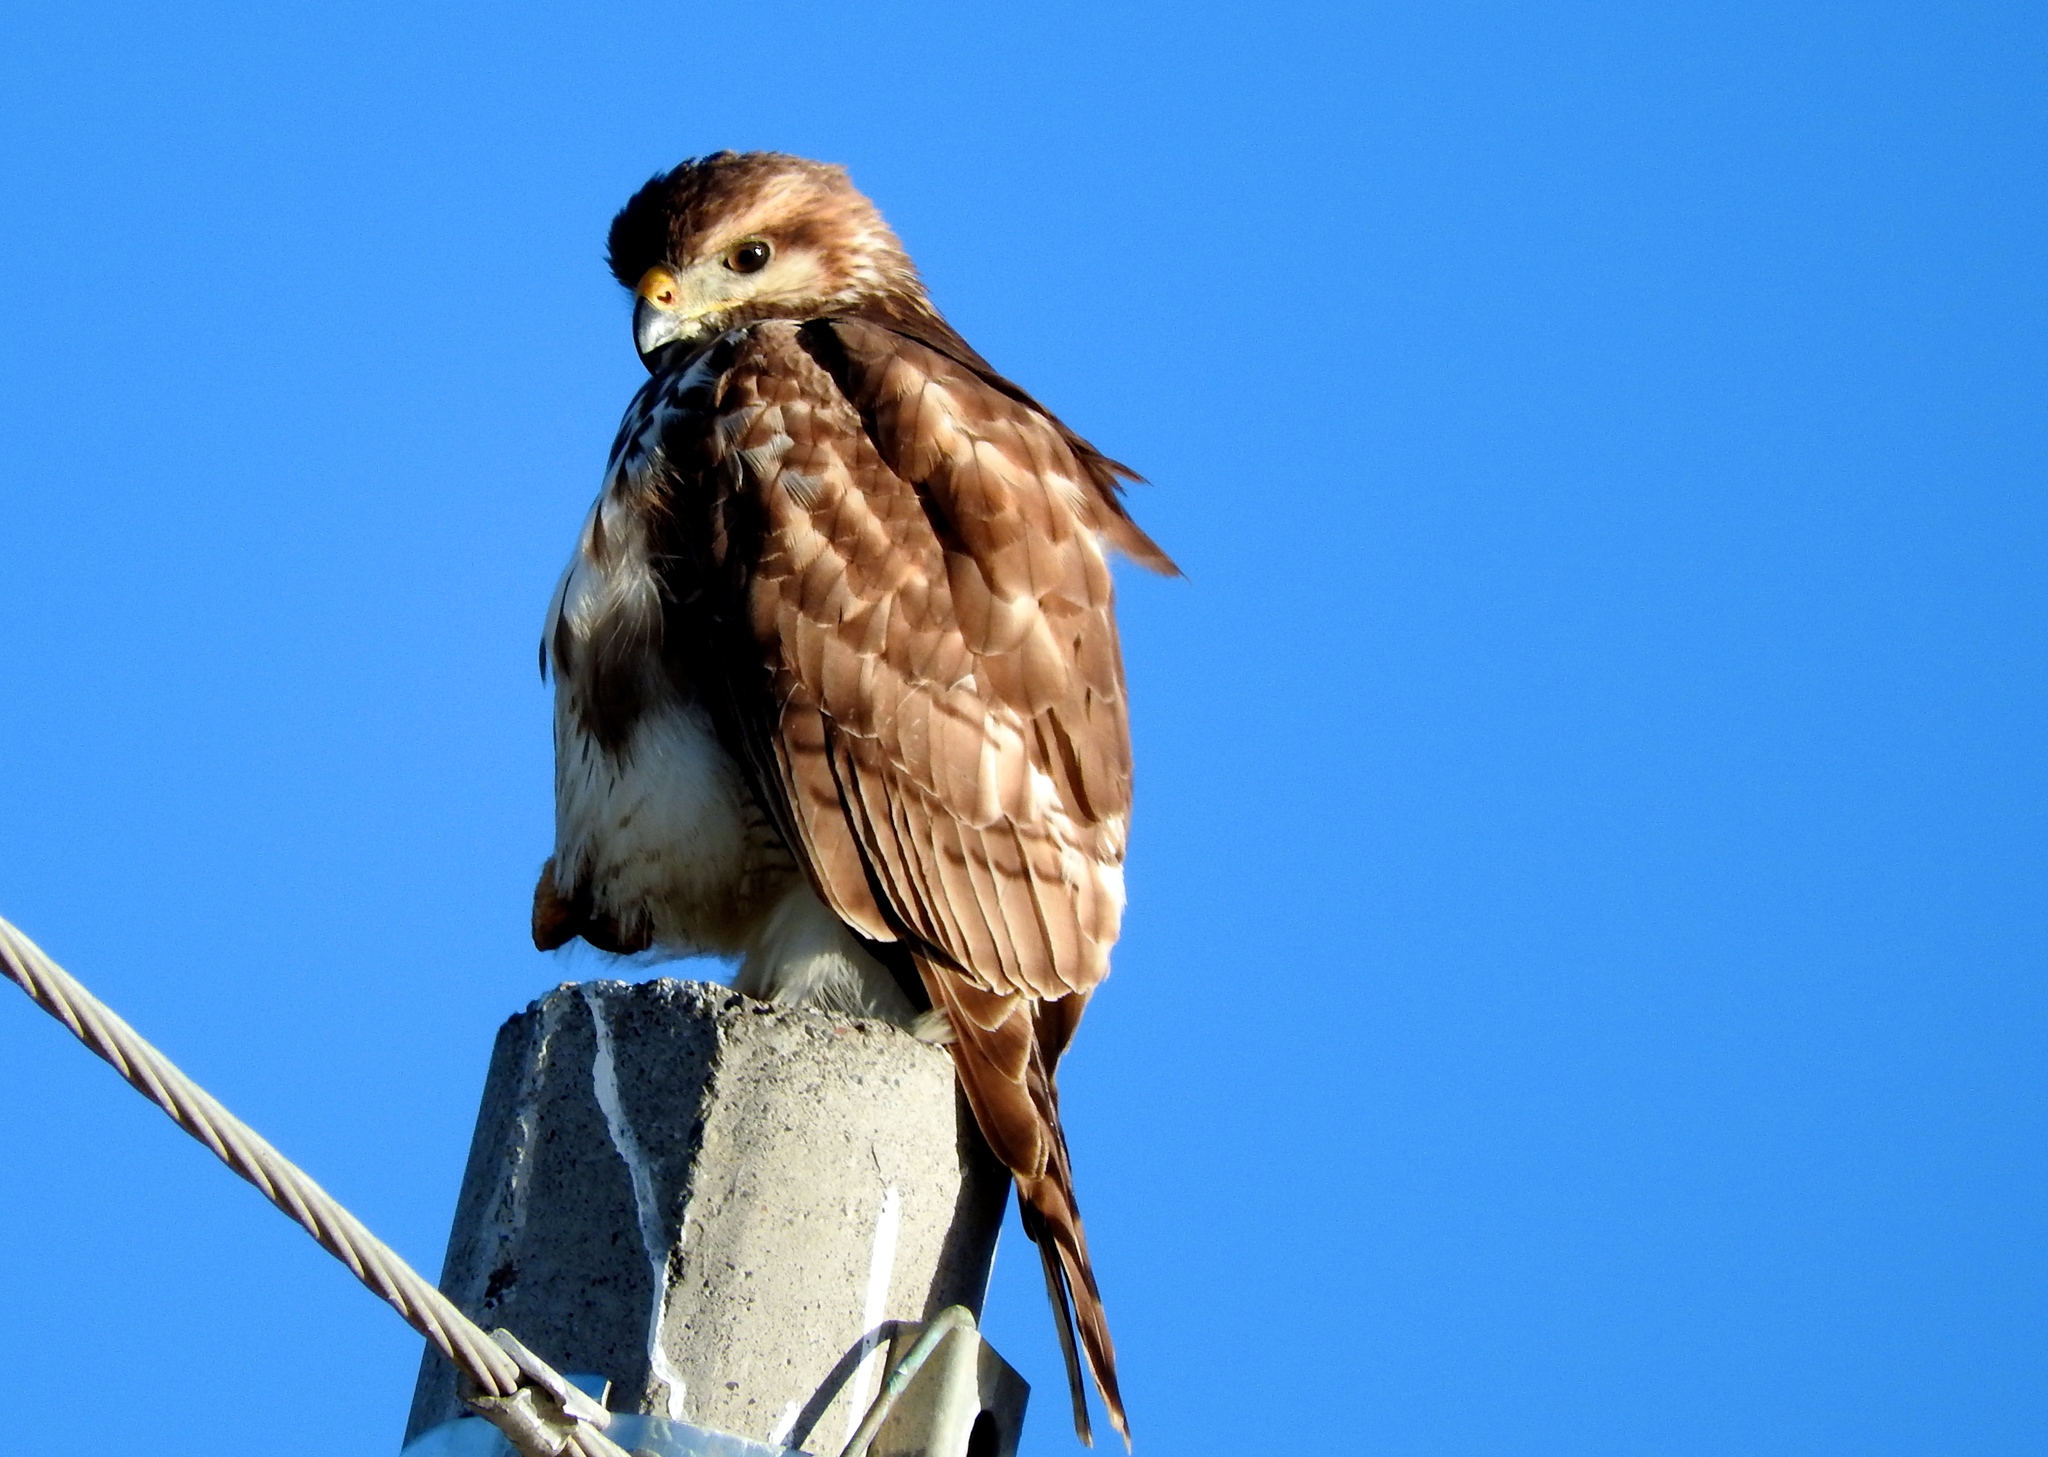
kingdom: Animalia
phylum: Chordata
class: Aves
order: Accipitriformes
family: Accipitridae
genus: Buteo
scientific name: Buteo nitidus
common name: Grey-lined hawk
